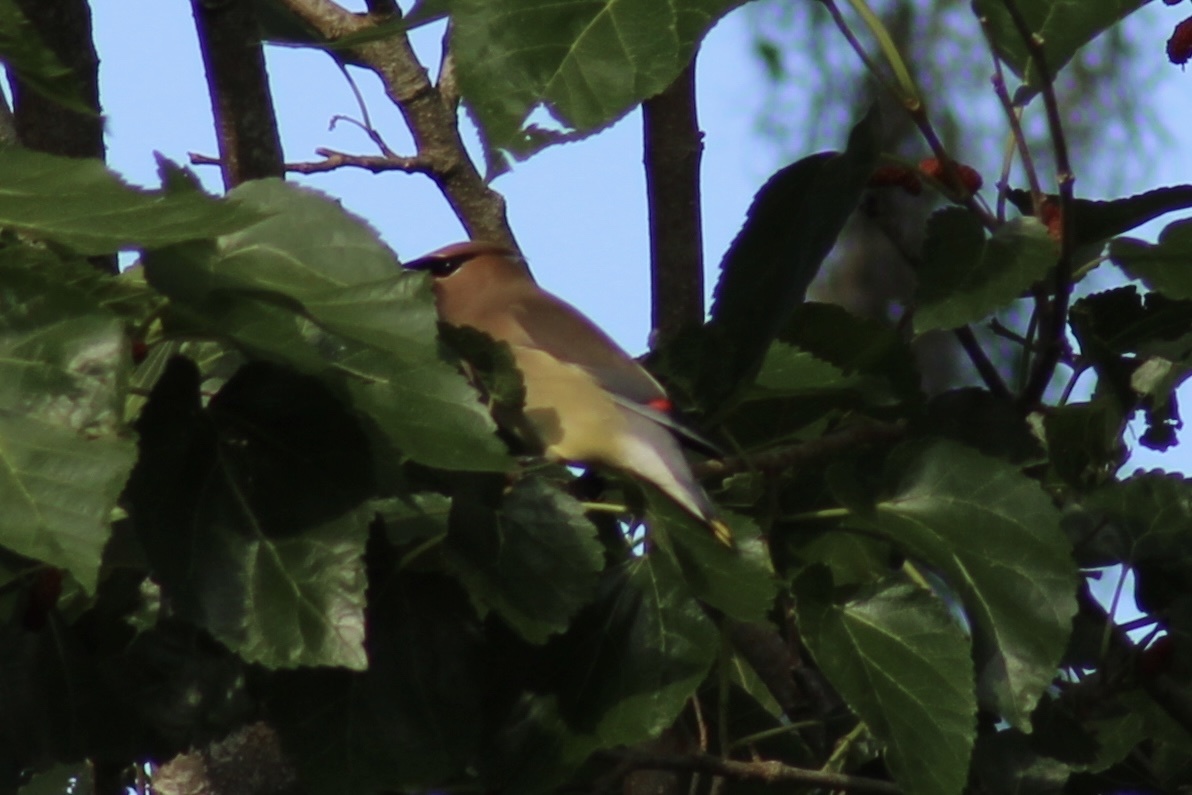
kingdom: Animalia
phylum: Chordata
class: Aves
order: Passeriformes
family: Bombycillidae
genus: Bombycilla
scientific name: Bombycilla cedrorum
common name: Cedar waxwing
